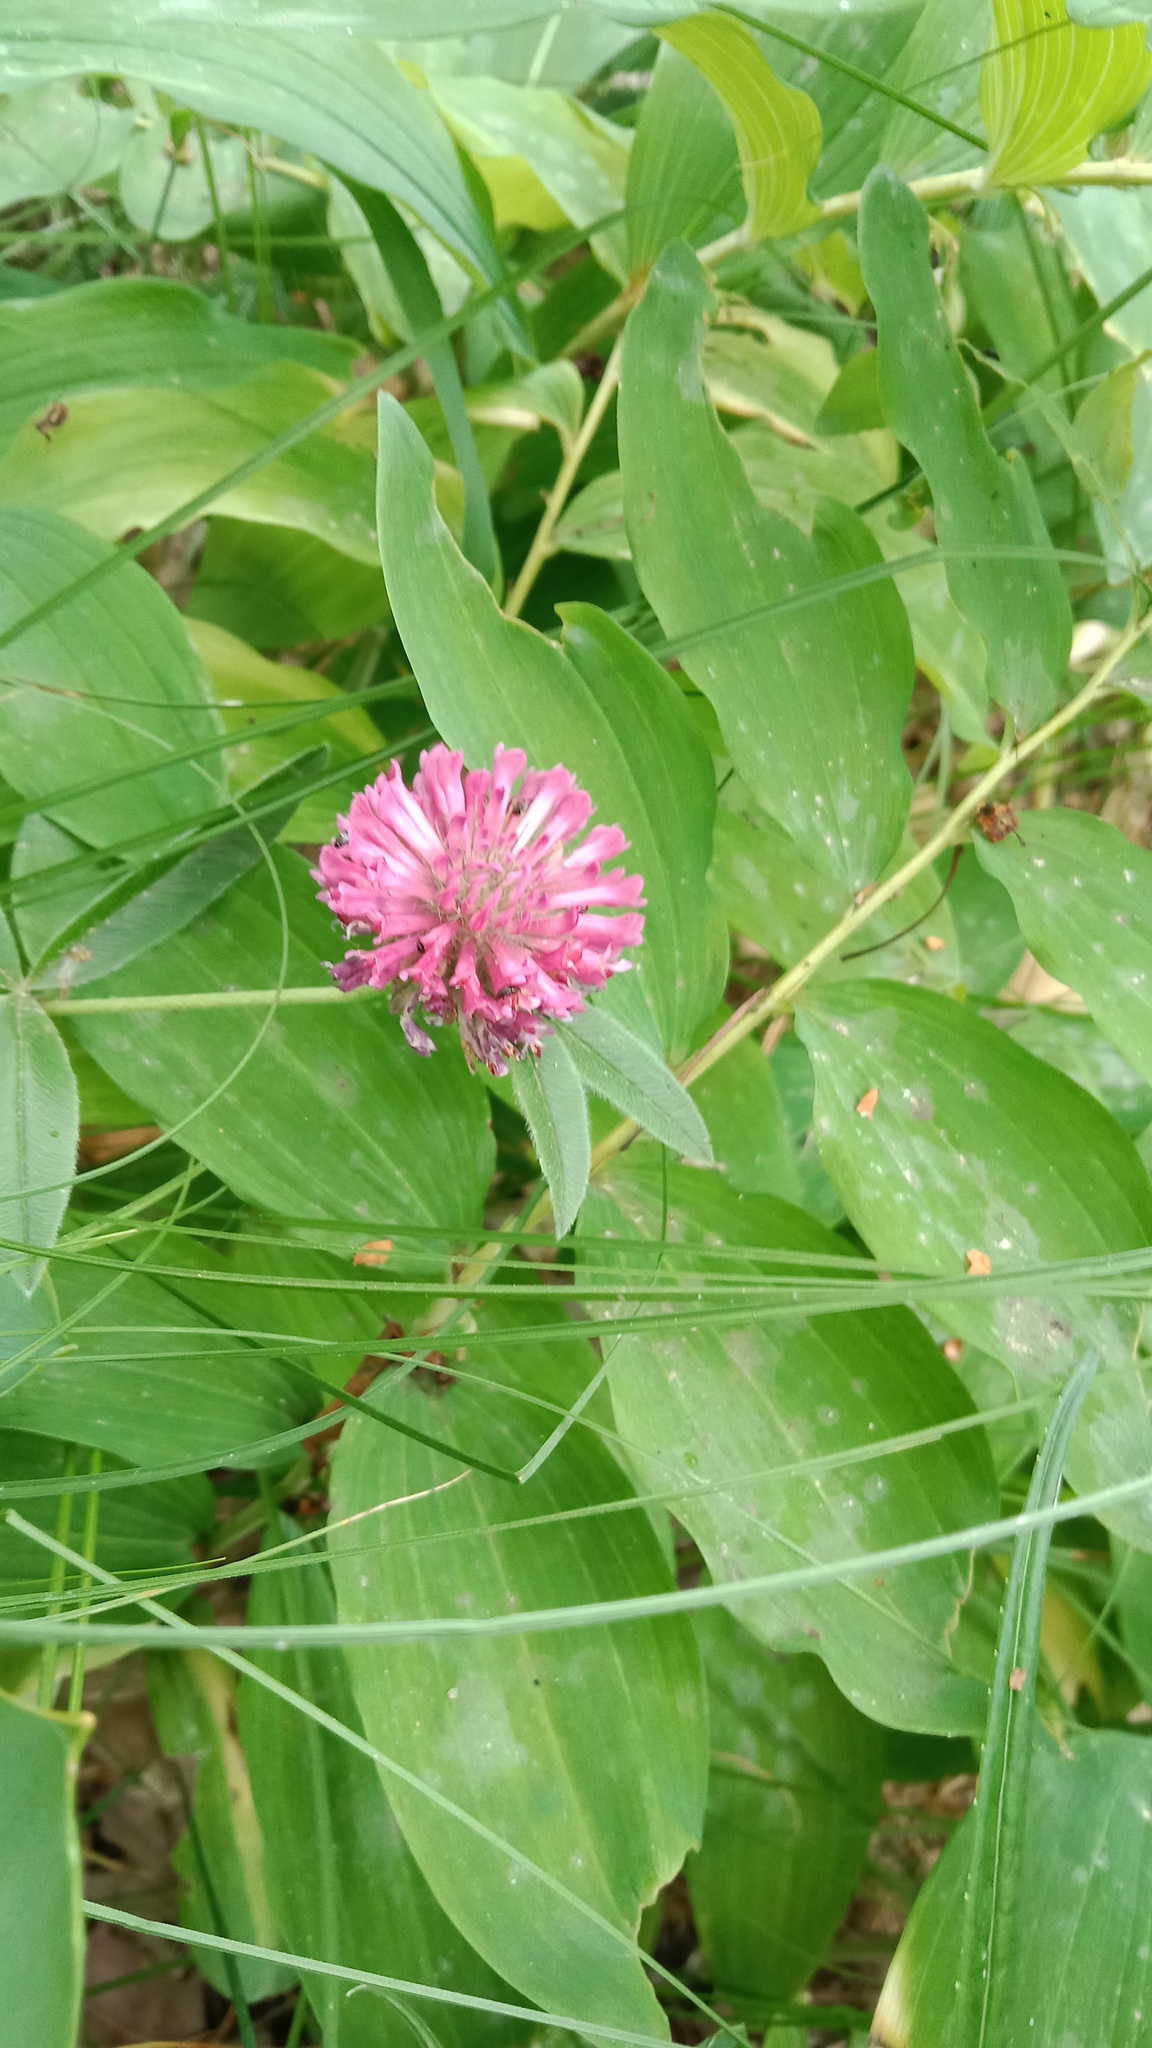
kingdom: Plantae
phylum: Tracheophyta
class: Magnoliopsida
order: Fabales
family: Fabaceae
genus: Trifolium
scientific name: Trifolium pratense
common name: Red clover
